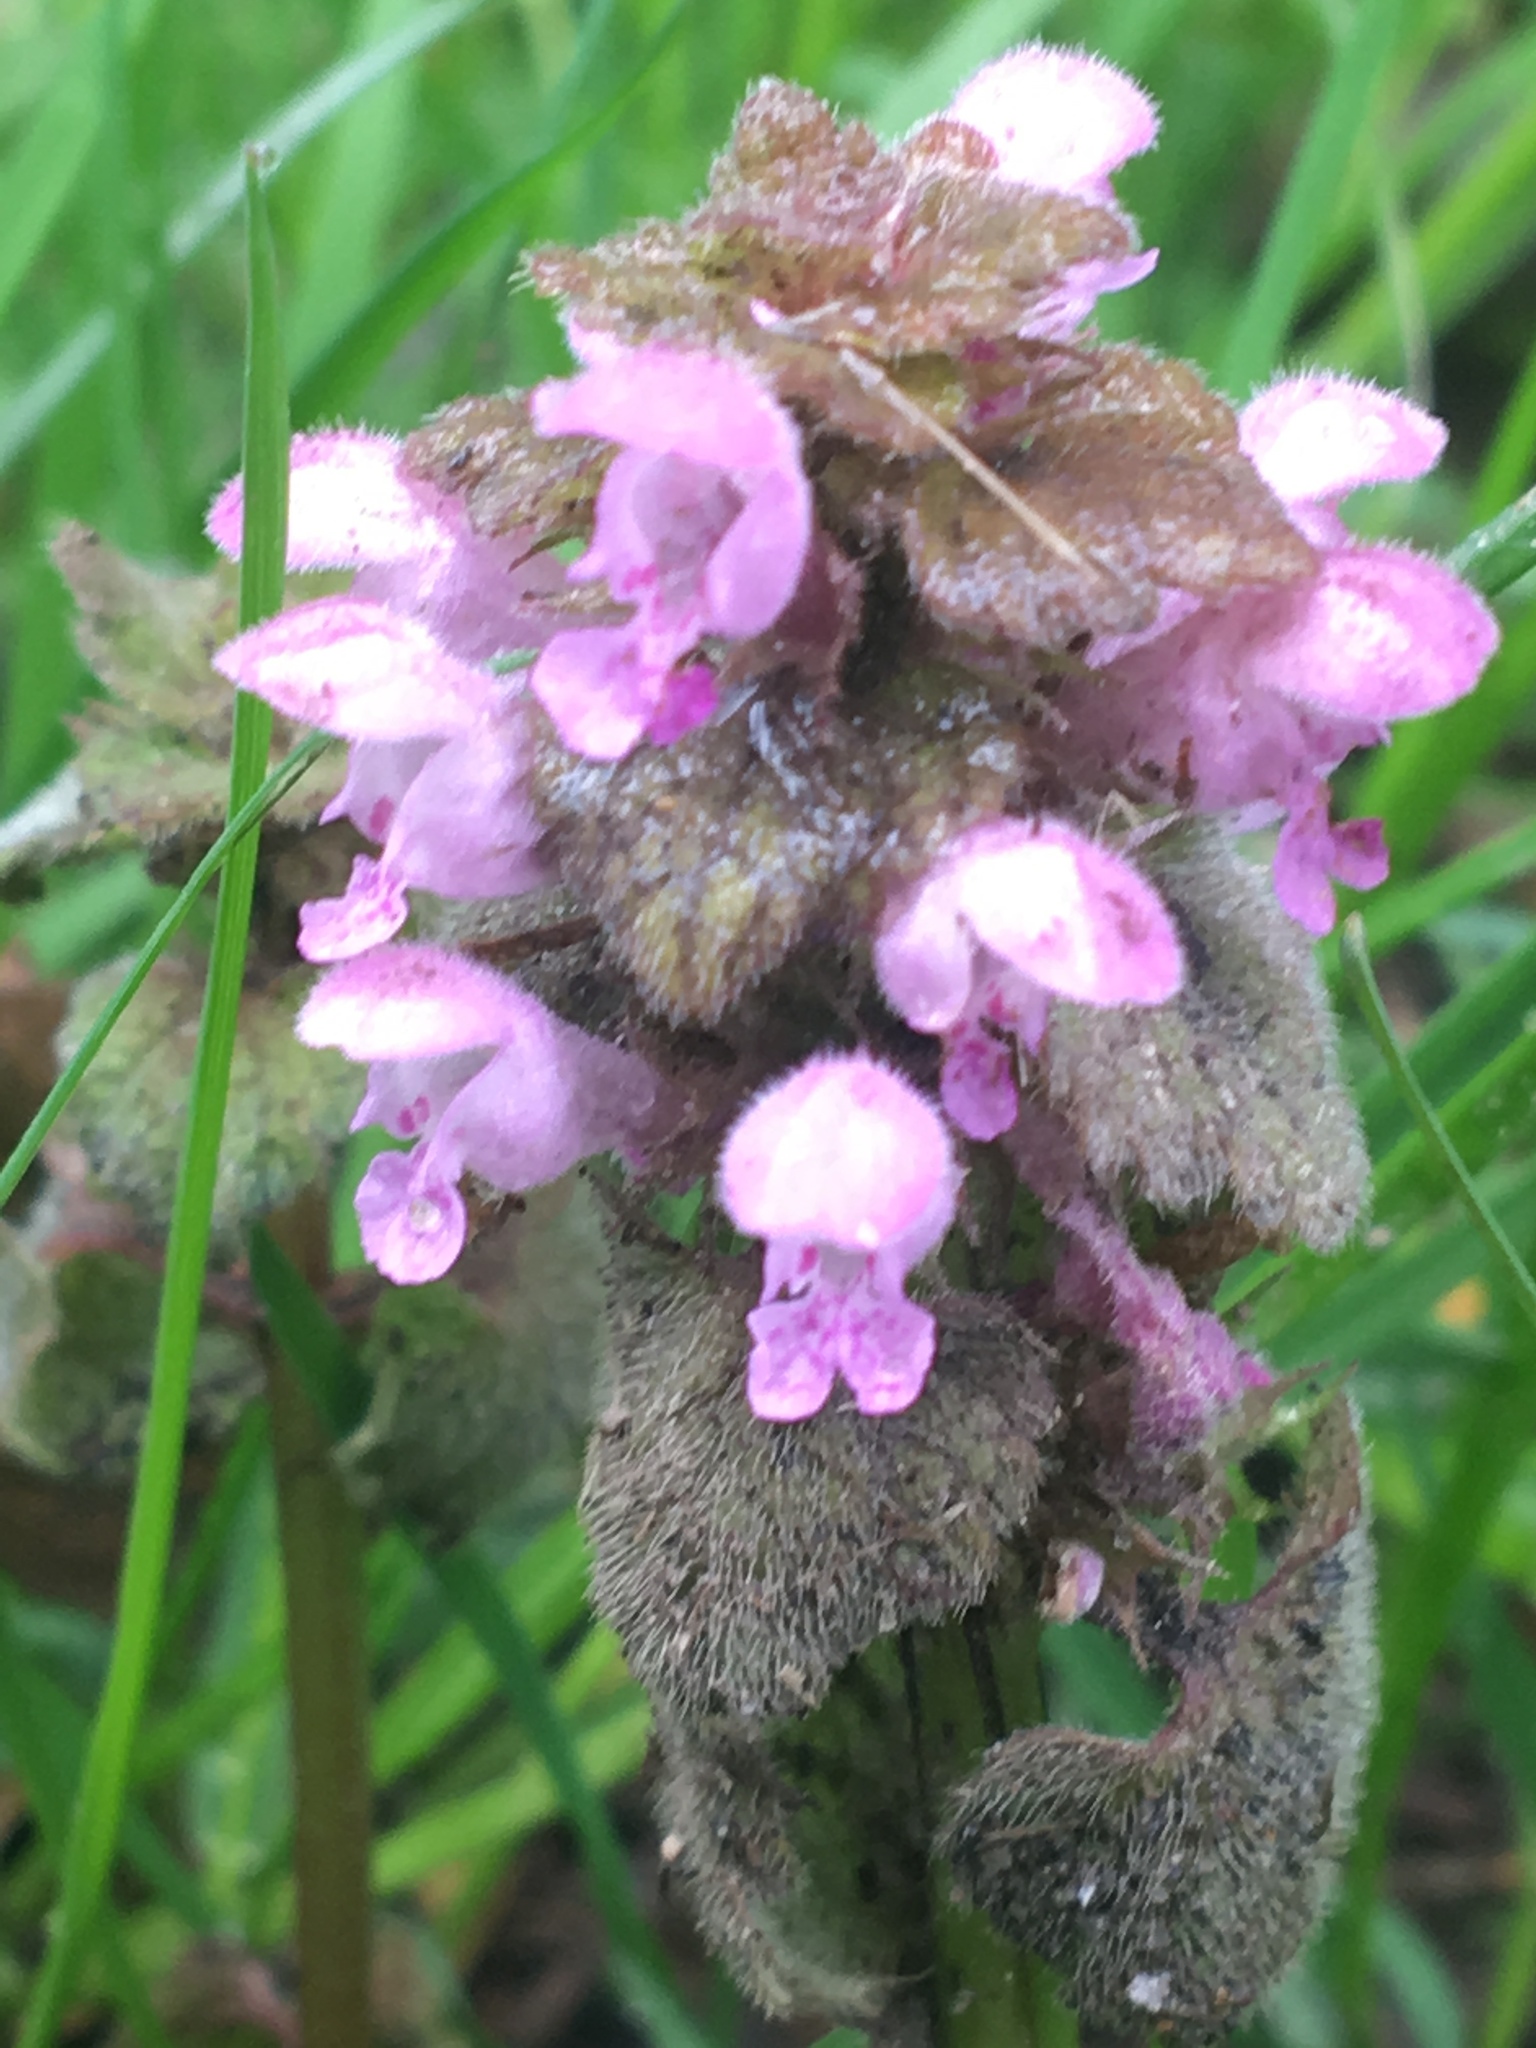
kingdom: Plantae
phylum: Tracheophyta
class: Magnoliopsida
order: Lamiales
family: Lamiaceae
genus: Lamium
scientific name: Lamium purpureum
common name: Red dead-nettle
